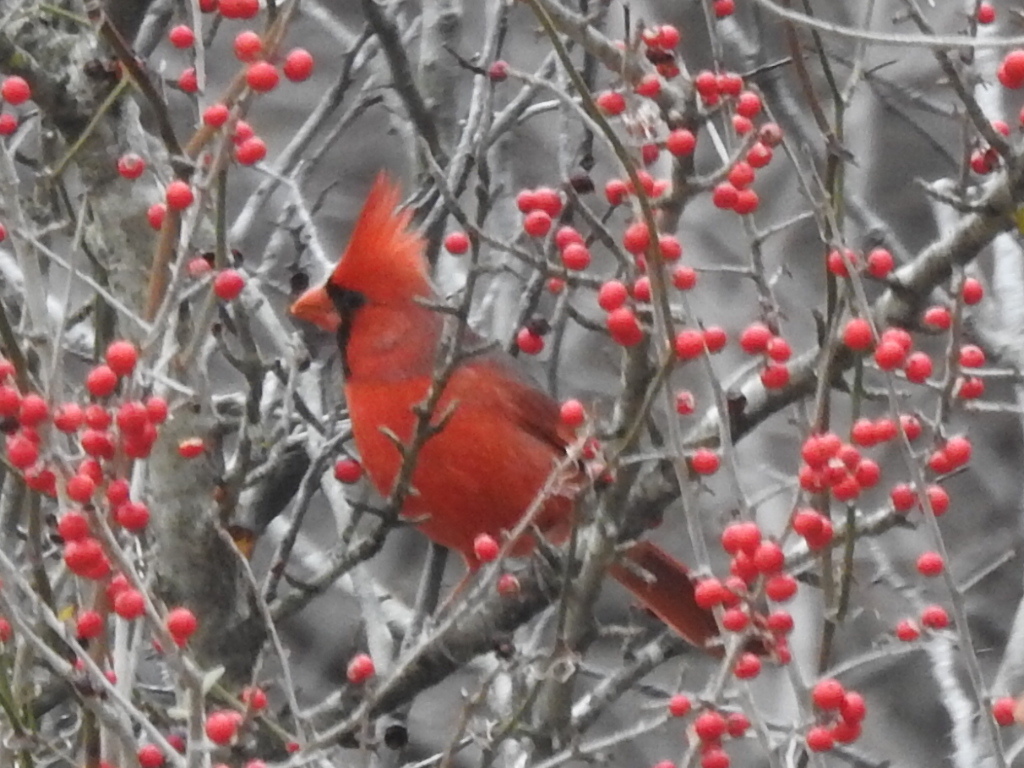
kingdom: Animalia
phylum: Chordata
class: Aves
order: Passeriformes
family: Cardinalidae
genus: Cardinalis
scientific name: Cardinalis cardinalis
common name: Northern cardinal
